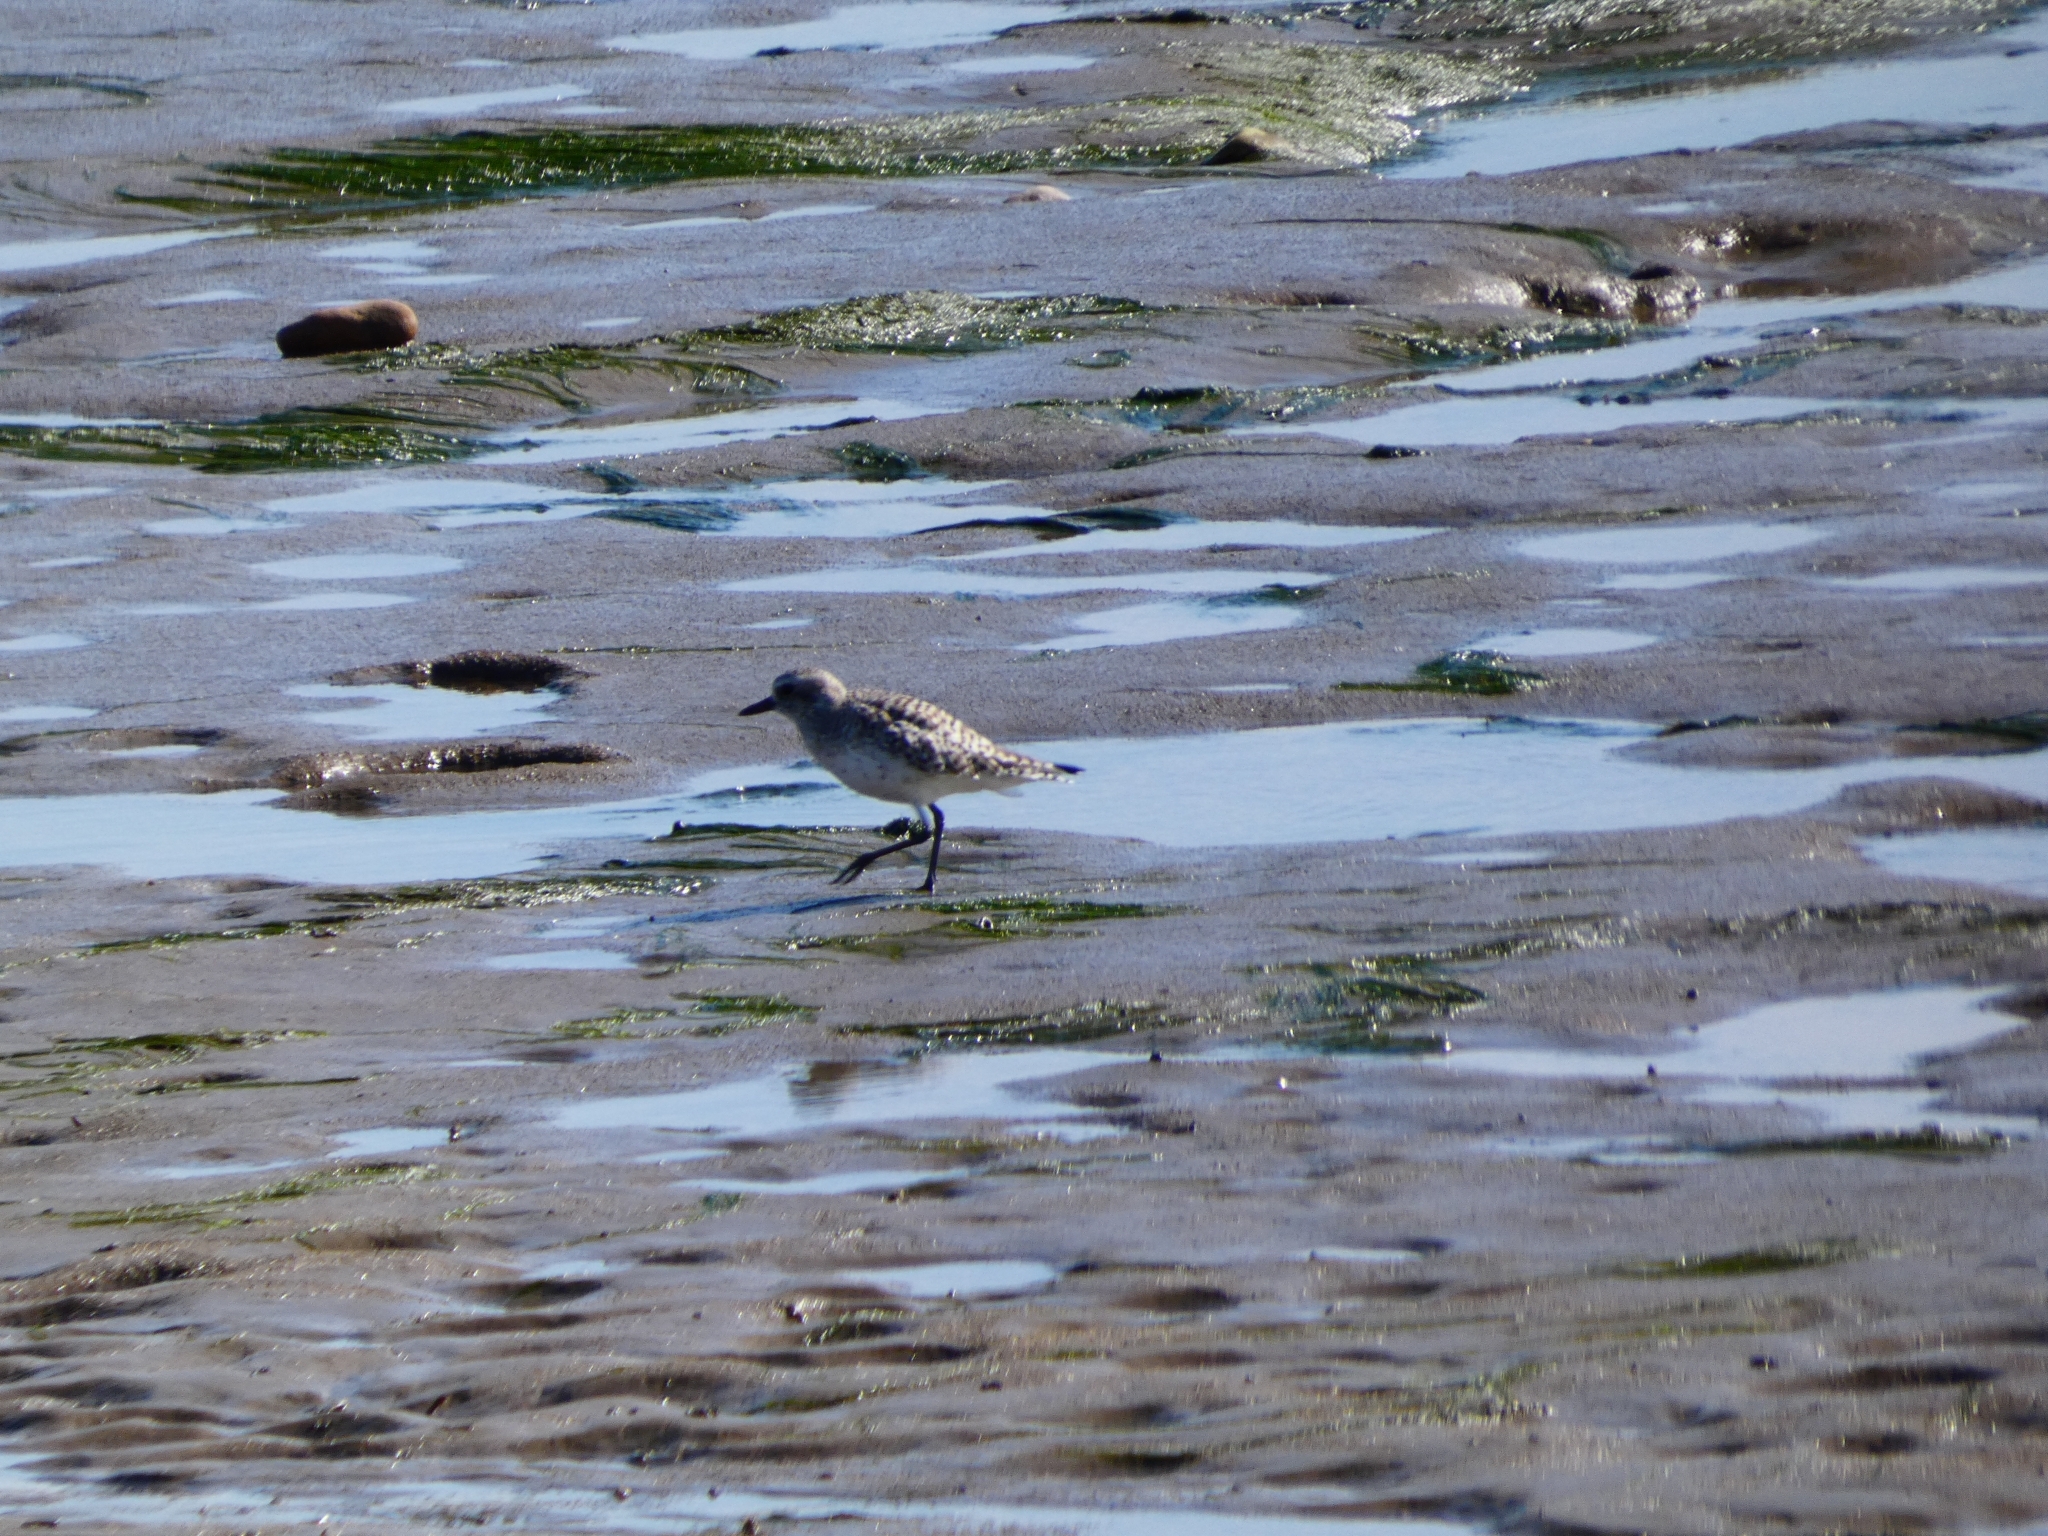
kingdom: Animalia
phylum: Chordata
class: Aves
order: Charadriiformes
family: Scolopacidae
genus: Calidris
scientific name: Calidris alba
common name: Sanderling
